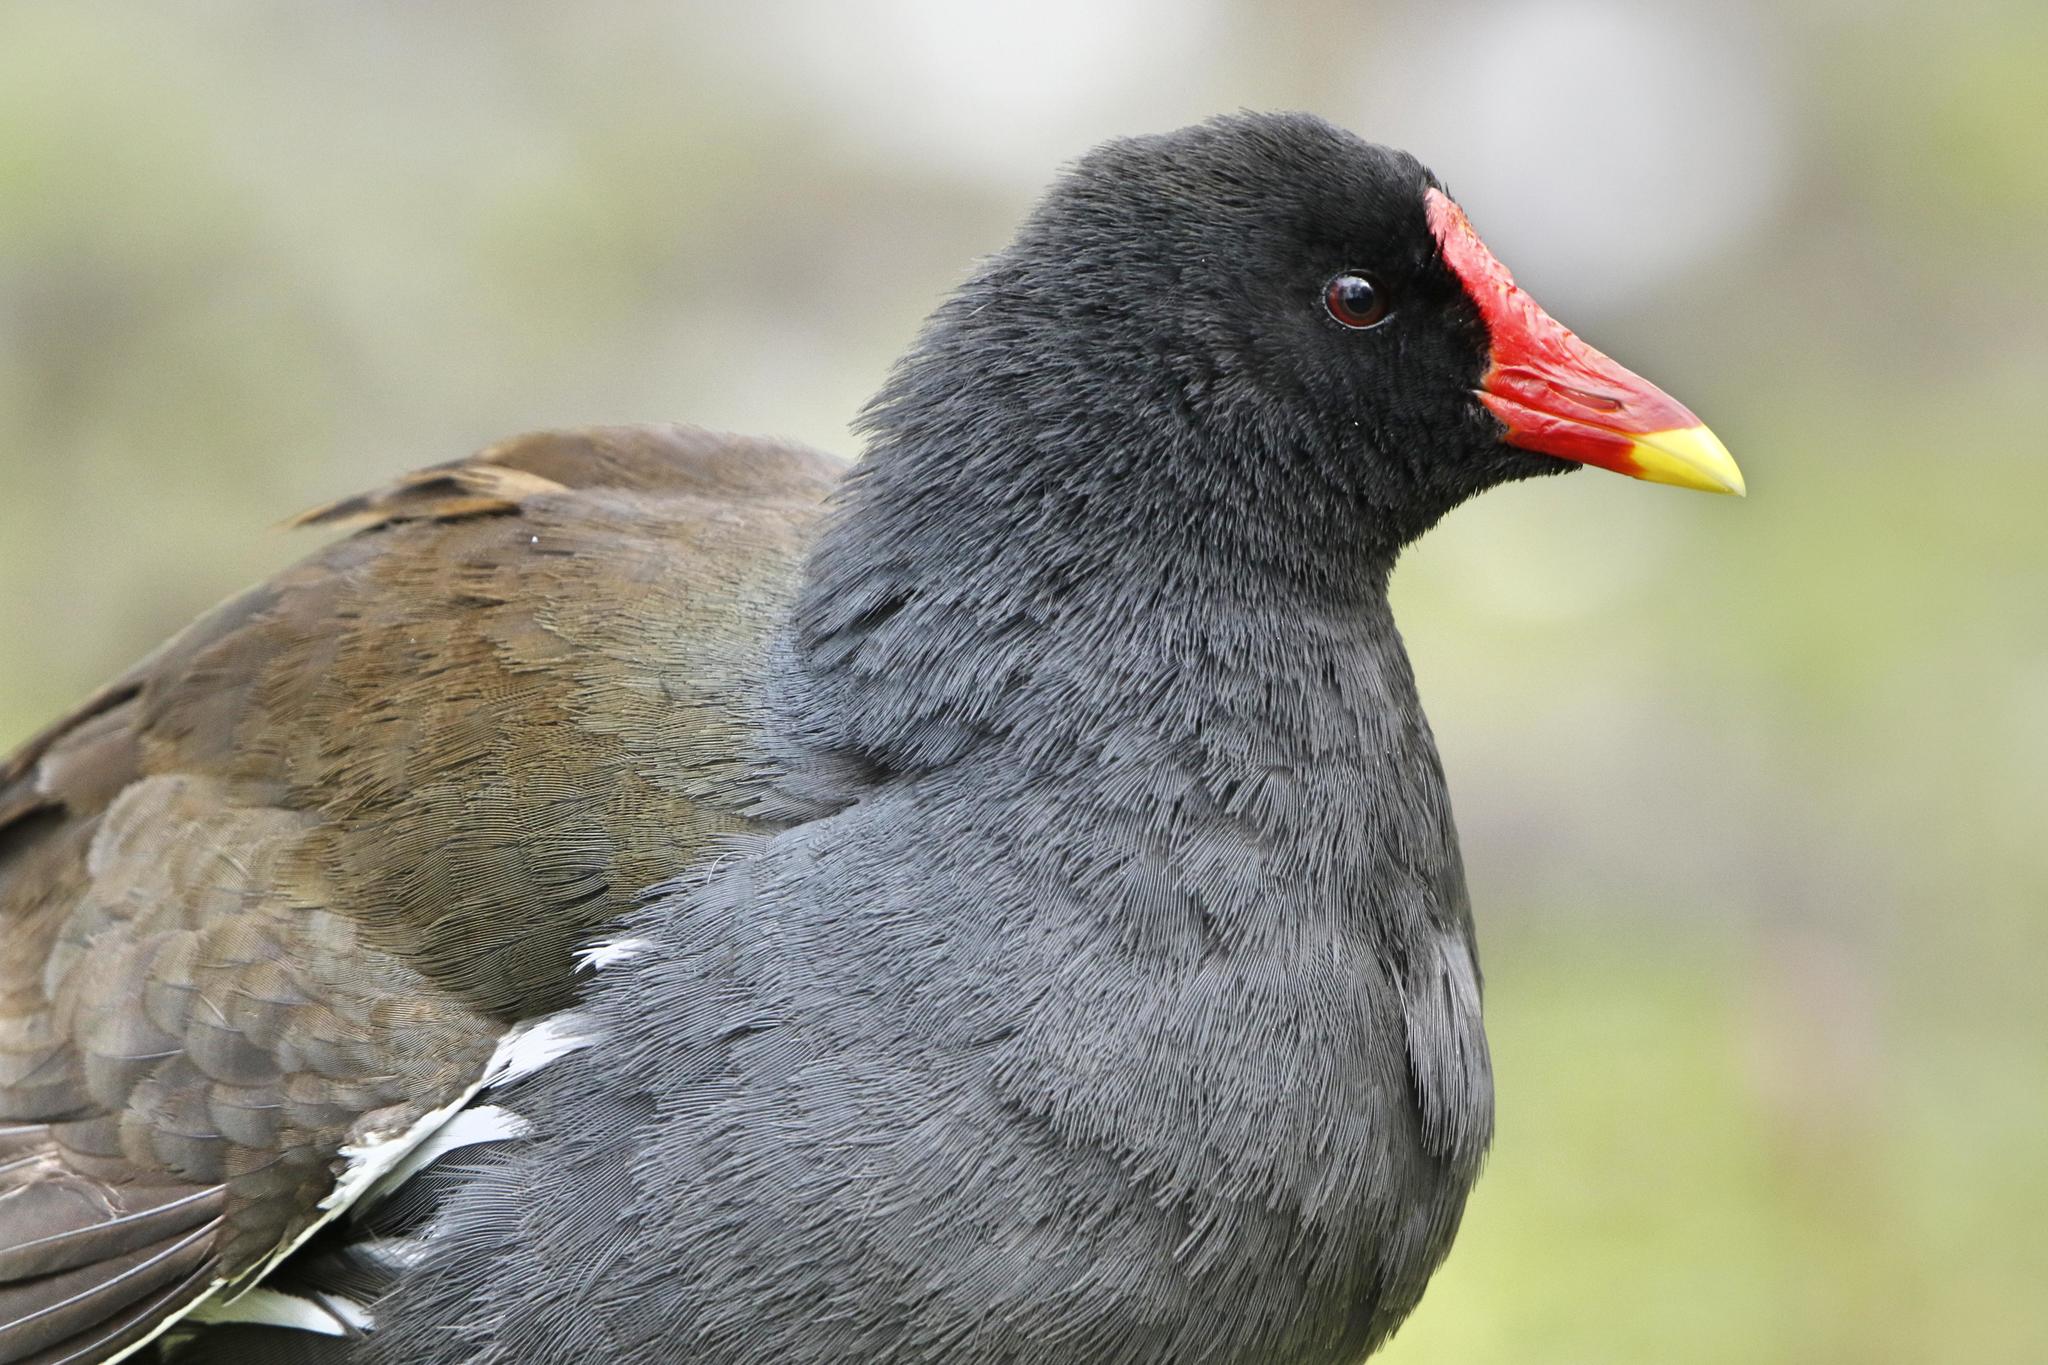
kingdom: Animalia
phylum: Chordata
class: Aves
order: Gruiformes
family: Rallidae
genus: Gallinula
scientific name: Gallinula chloropus
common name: Common moorhen
